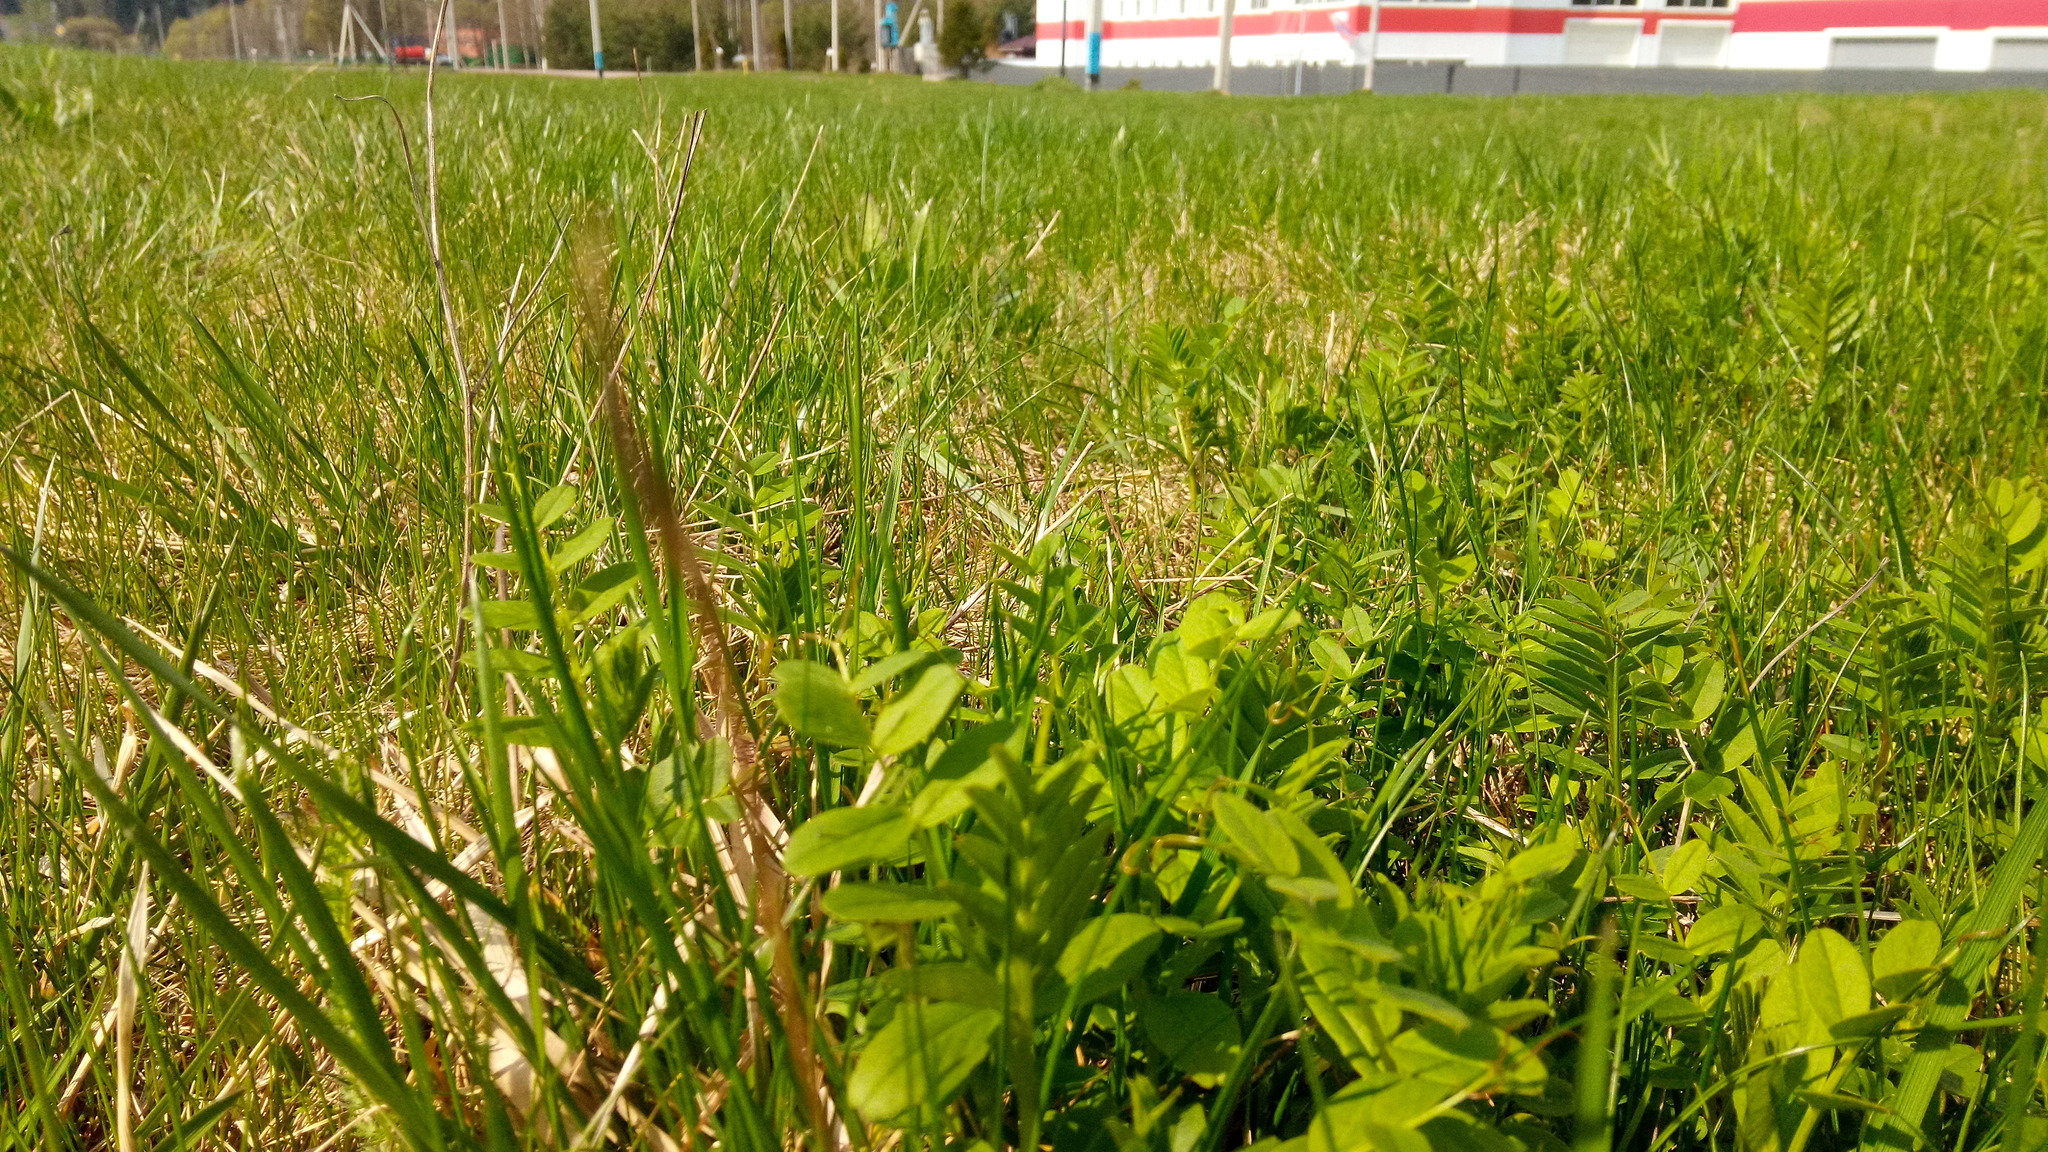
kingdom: Plantae
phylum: Tracheophyta
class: Magnoliopsida
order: Fabales
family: Fabaceae
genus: Vicia
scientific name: Vicia sepium
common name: Bush vetch
